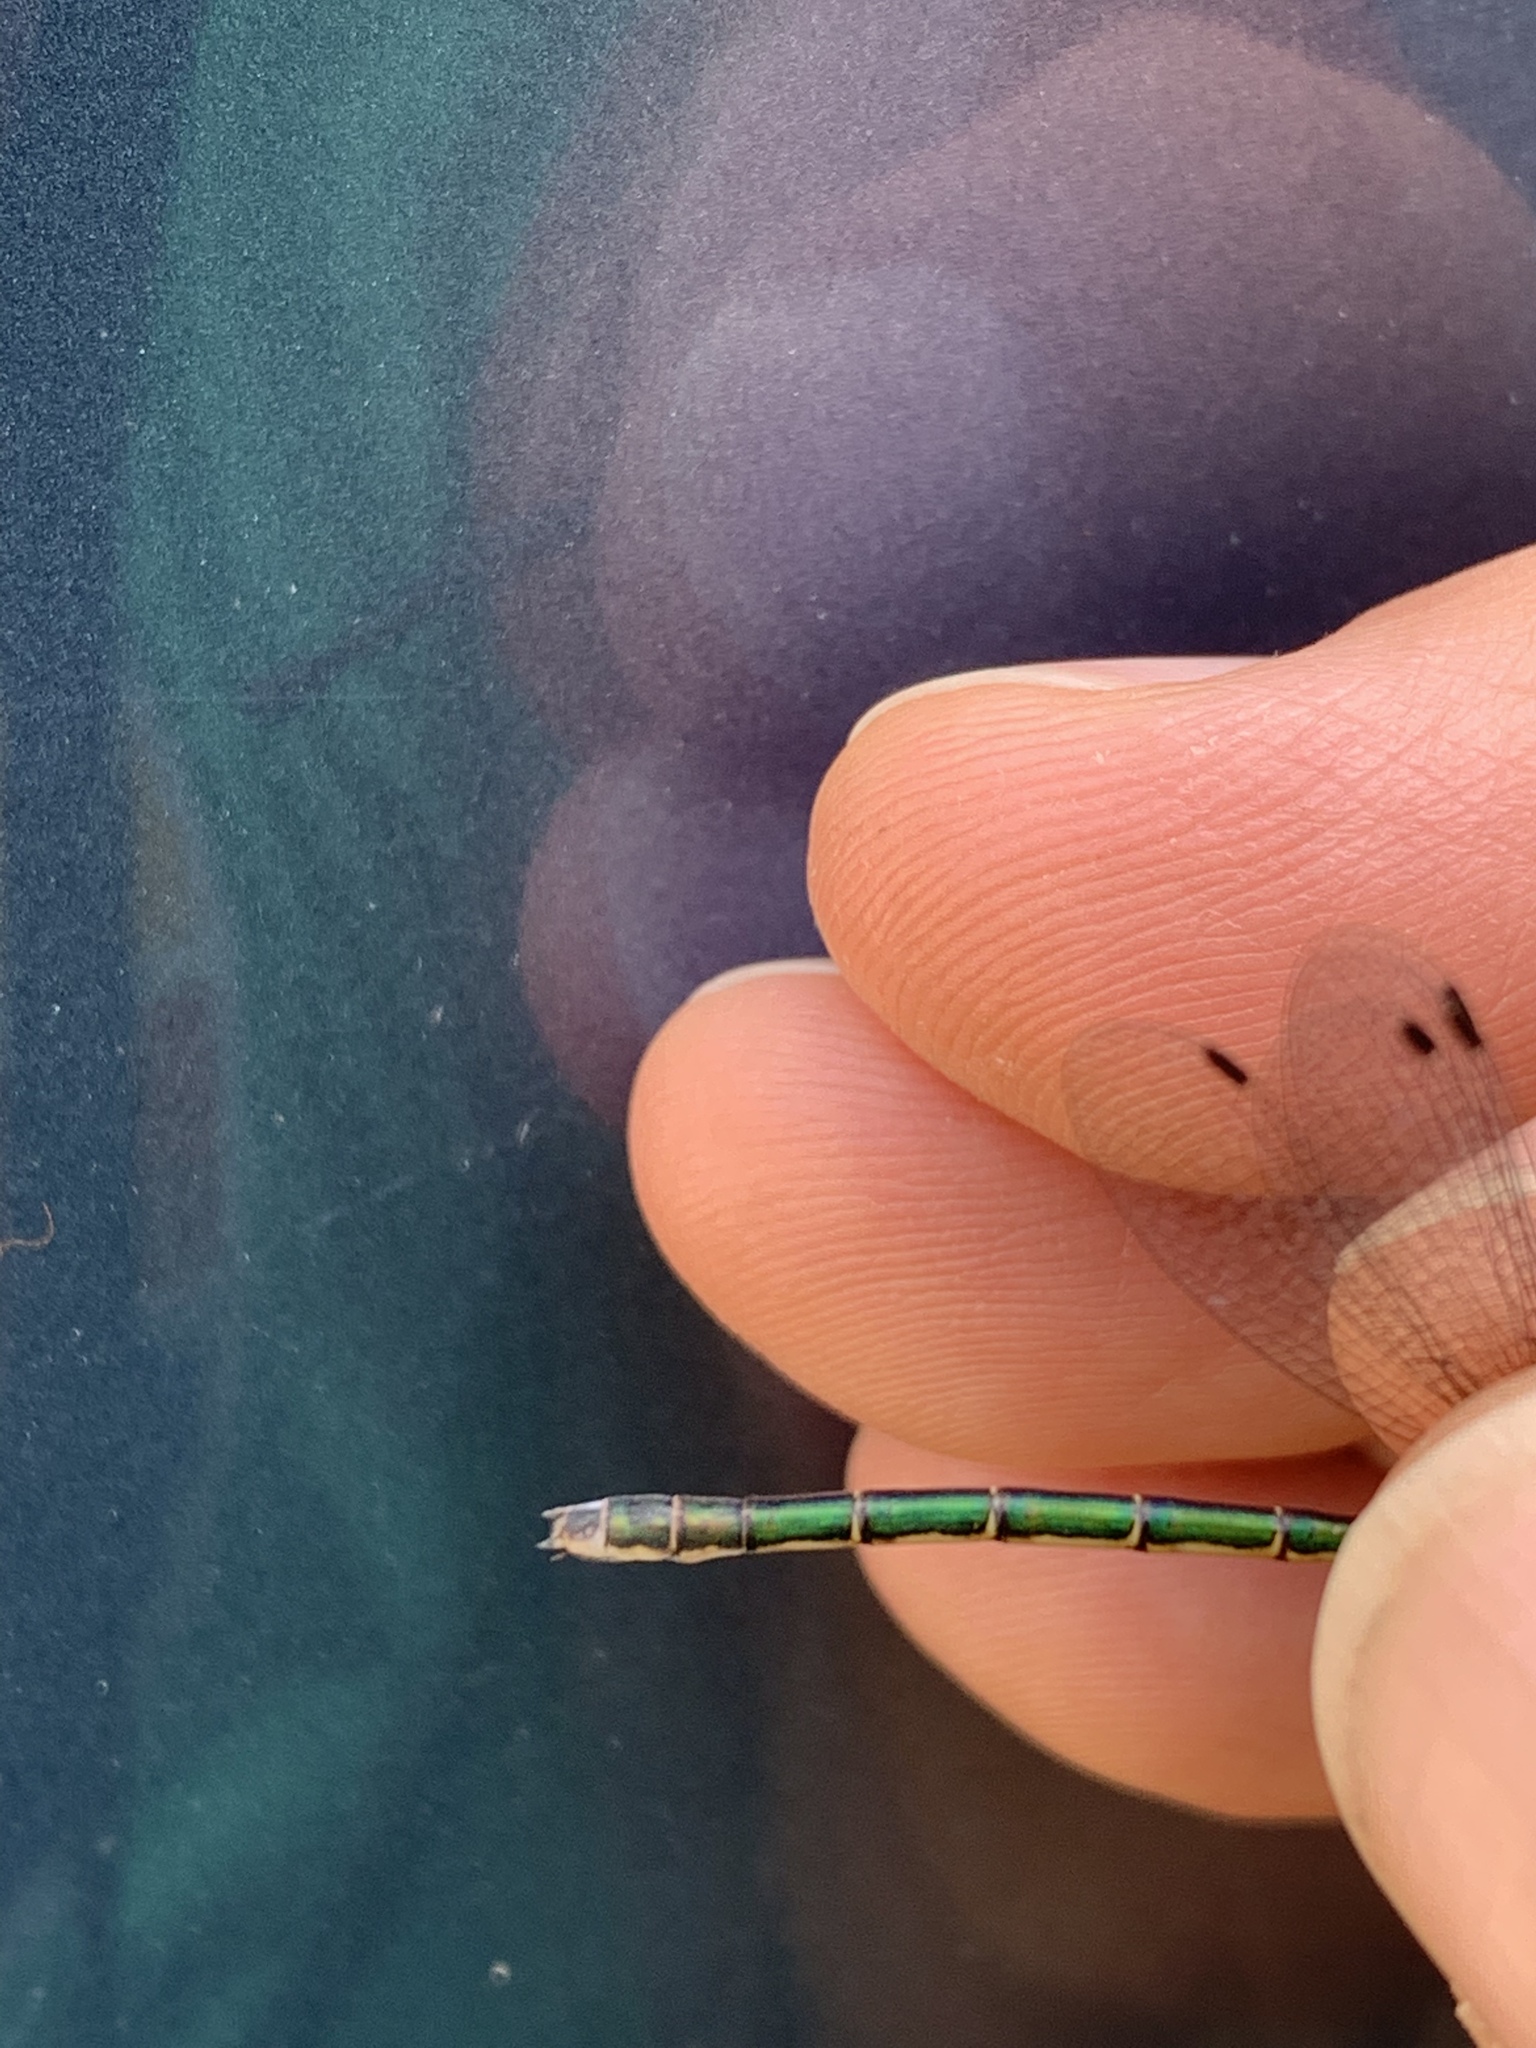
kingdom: Animalia
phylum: Arthropoda
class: Insecta
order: Odonata
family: Lestidae
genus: Lestes
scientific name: Lestes dryas
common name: Scarce emerald damselfly
